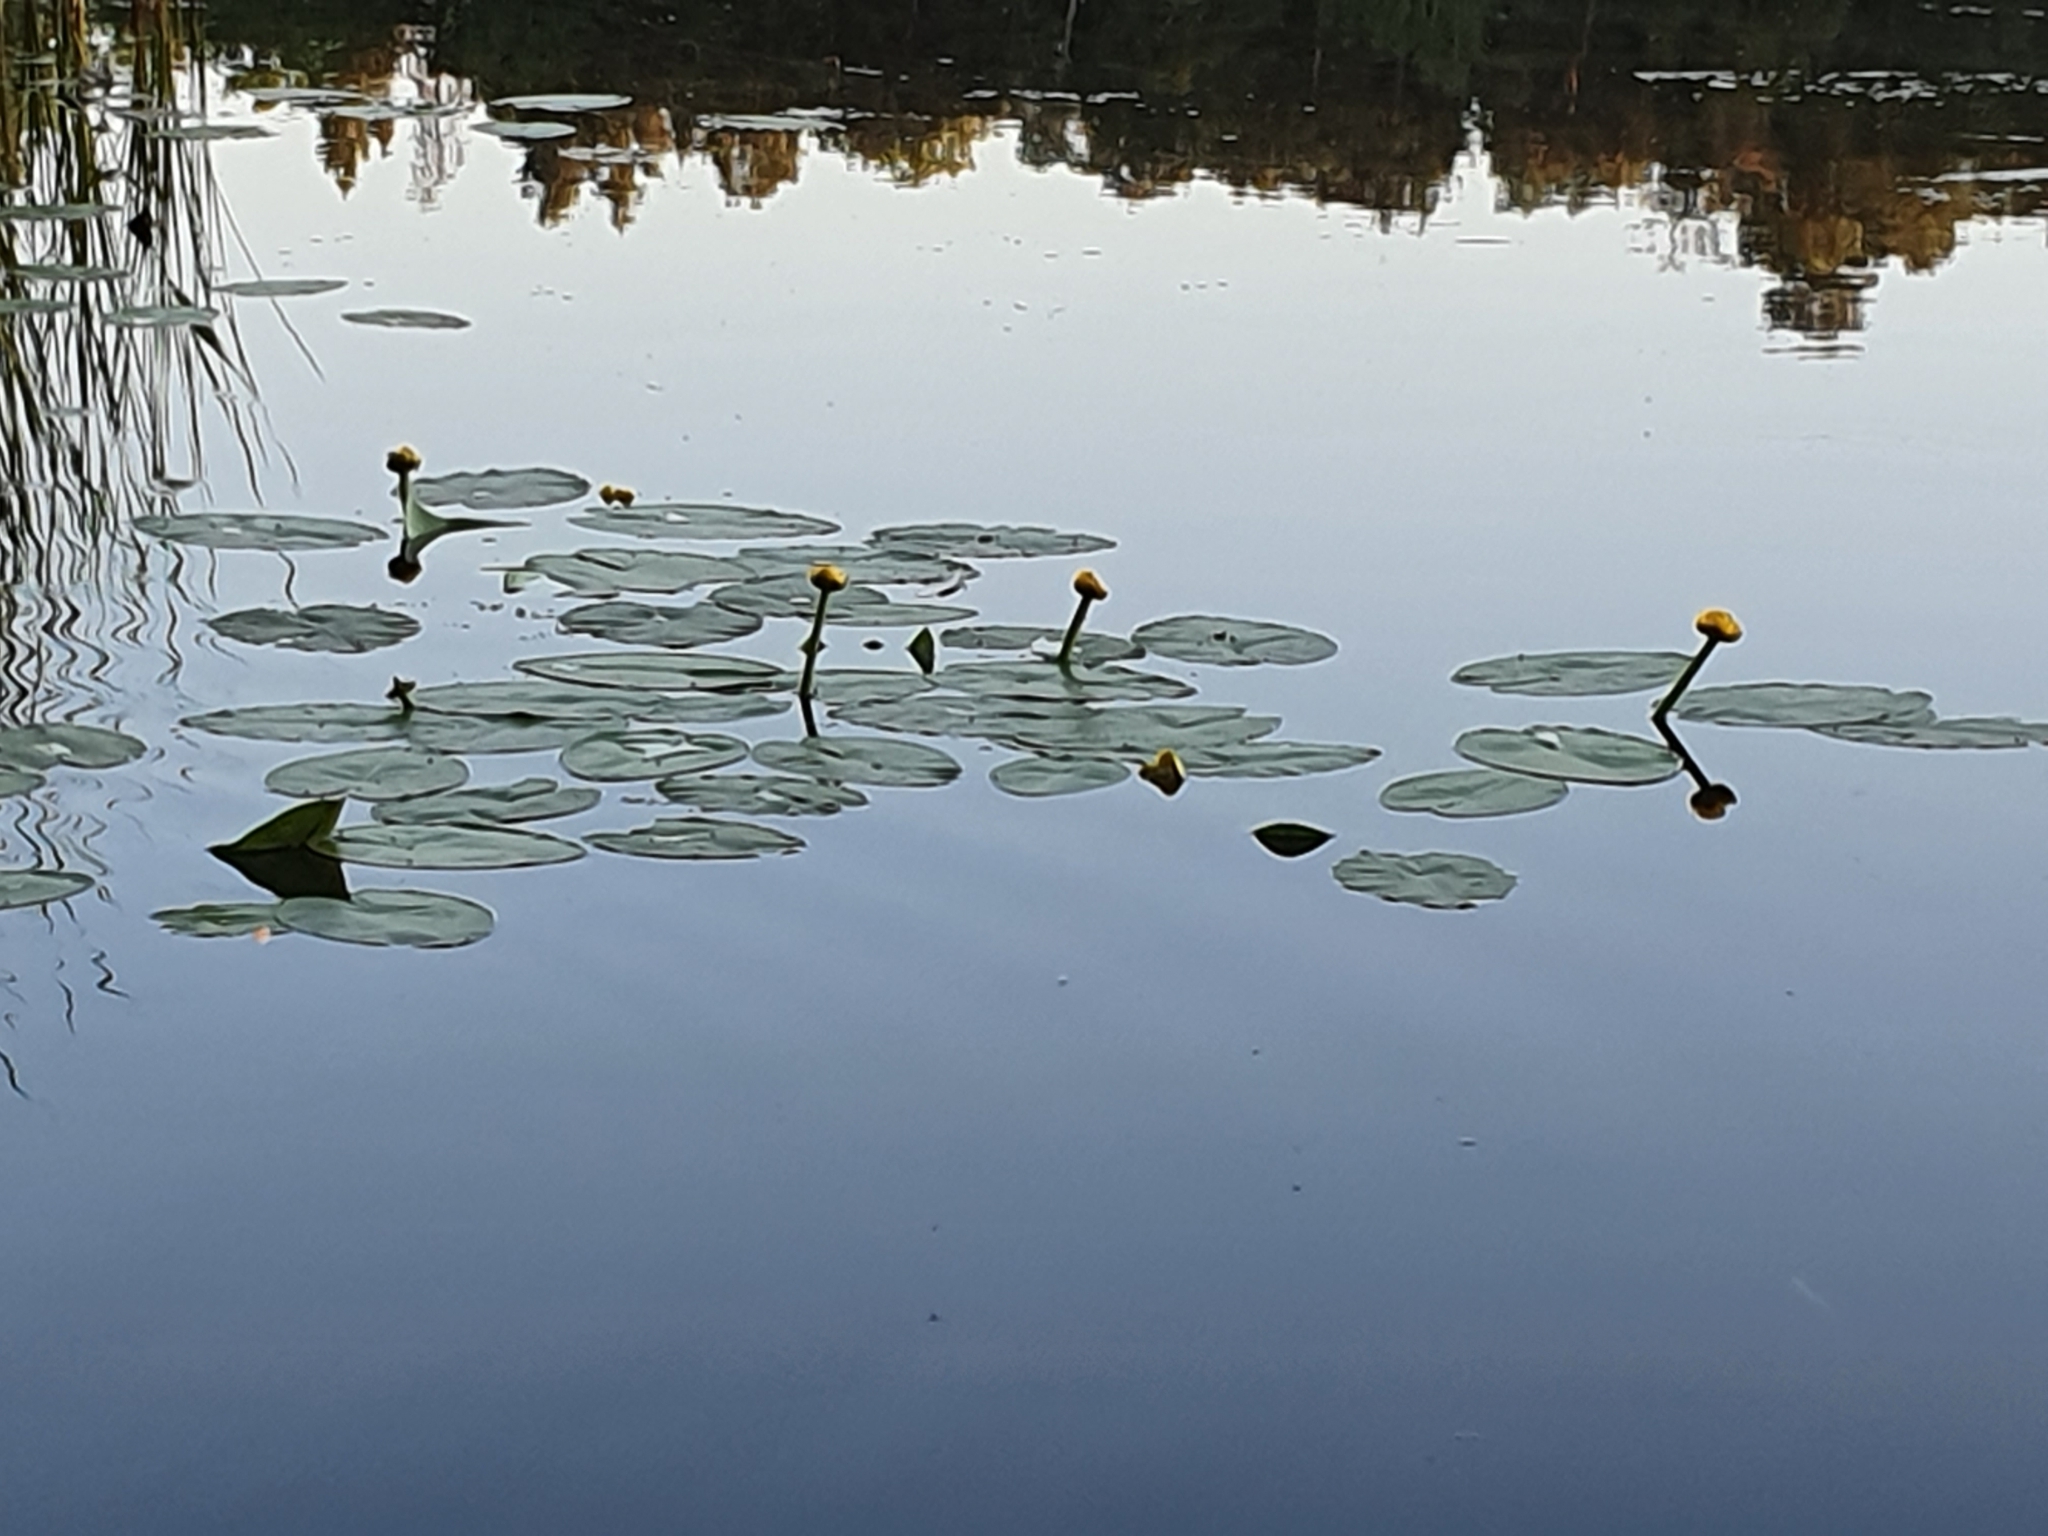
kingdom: Plantae
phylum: Tracheophyta
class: Magnoliopsida
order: Nymphaeales
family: Nymphaeaceae
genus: Nuphar
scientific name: Nuphar lutea
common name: Yellow water-lily
